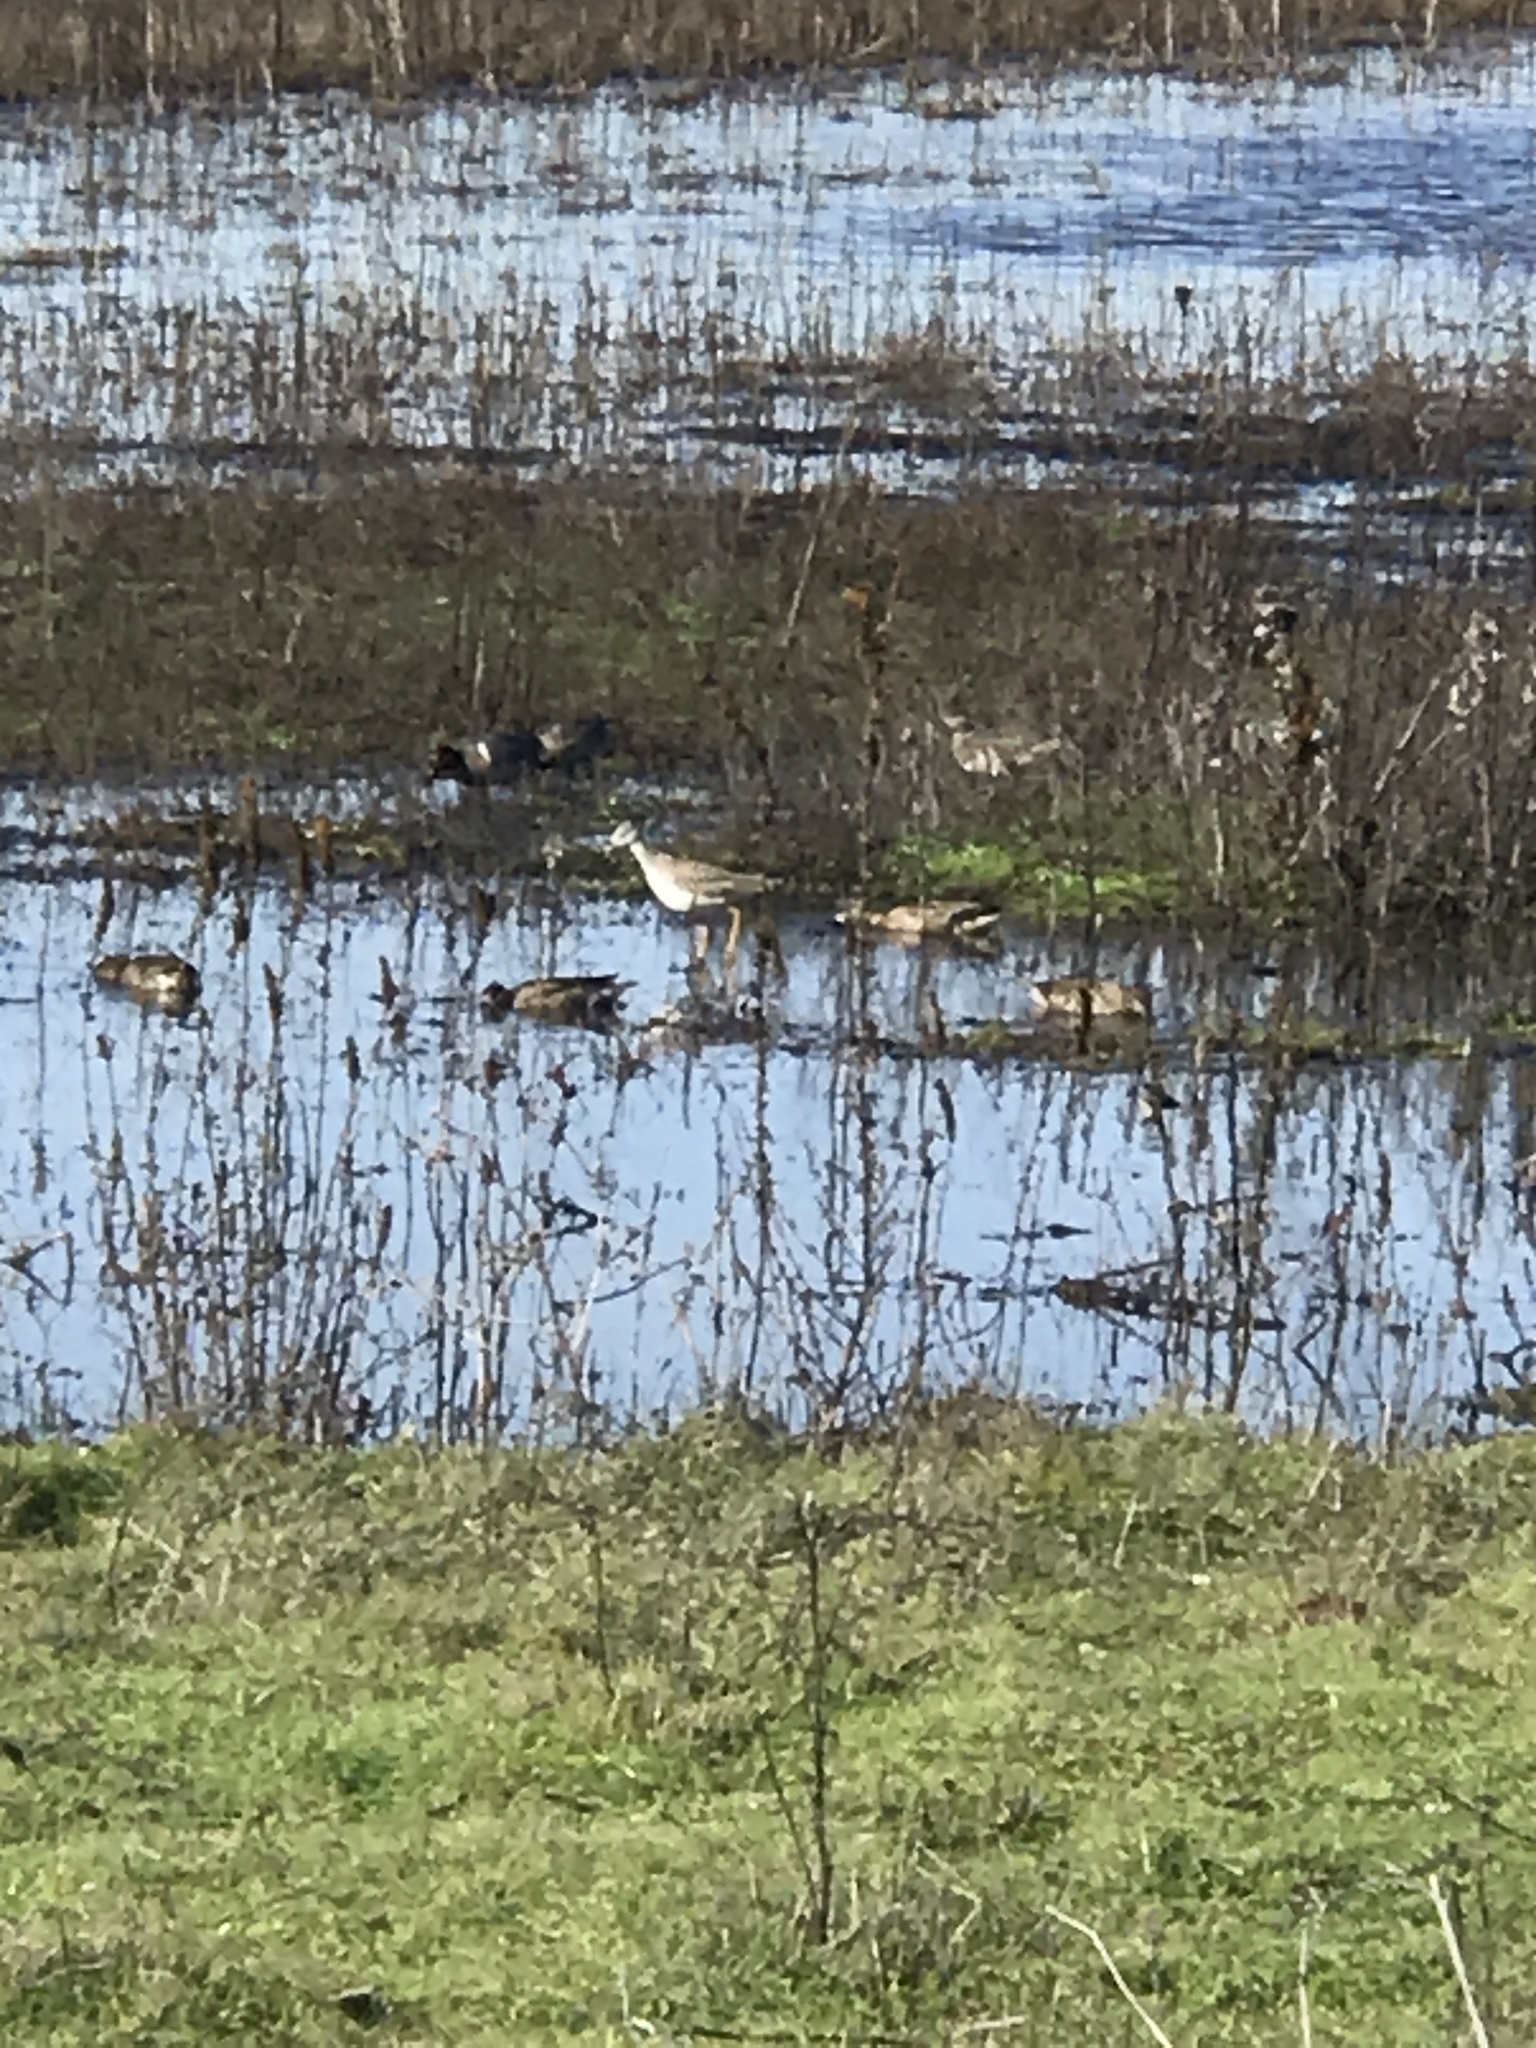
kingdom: Animalia
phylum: Chordata
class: Aves
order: Charadriiformes
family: Scolopacidae
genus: Tringa
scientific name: Tringa melanoleuca
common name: Greater yellowlegs
